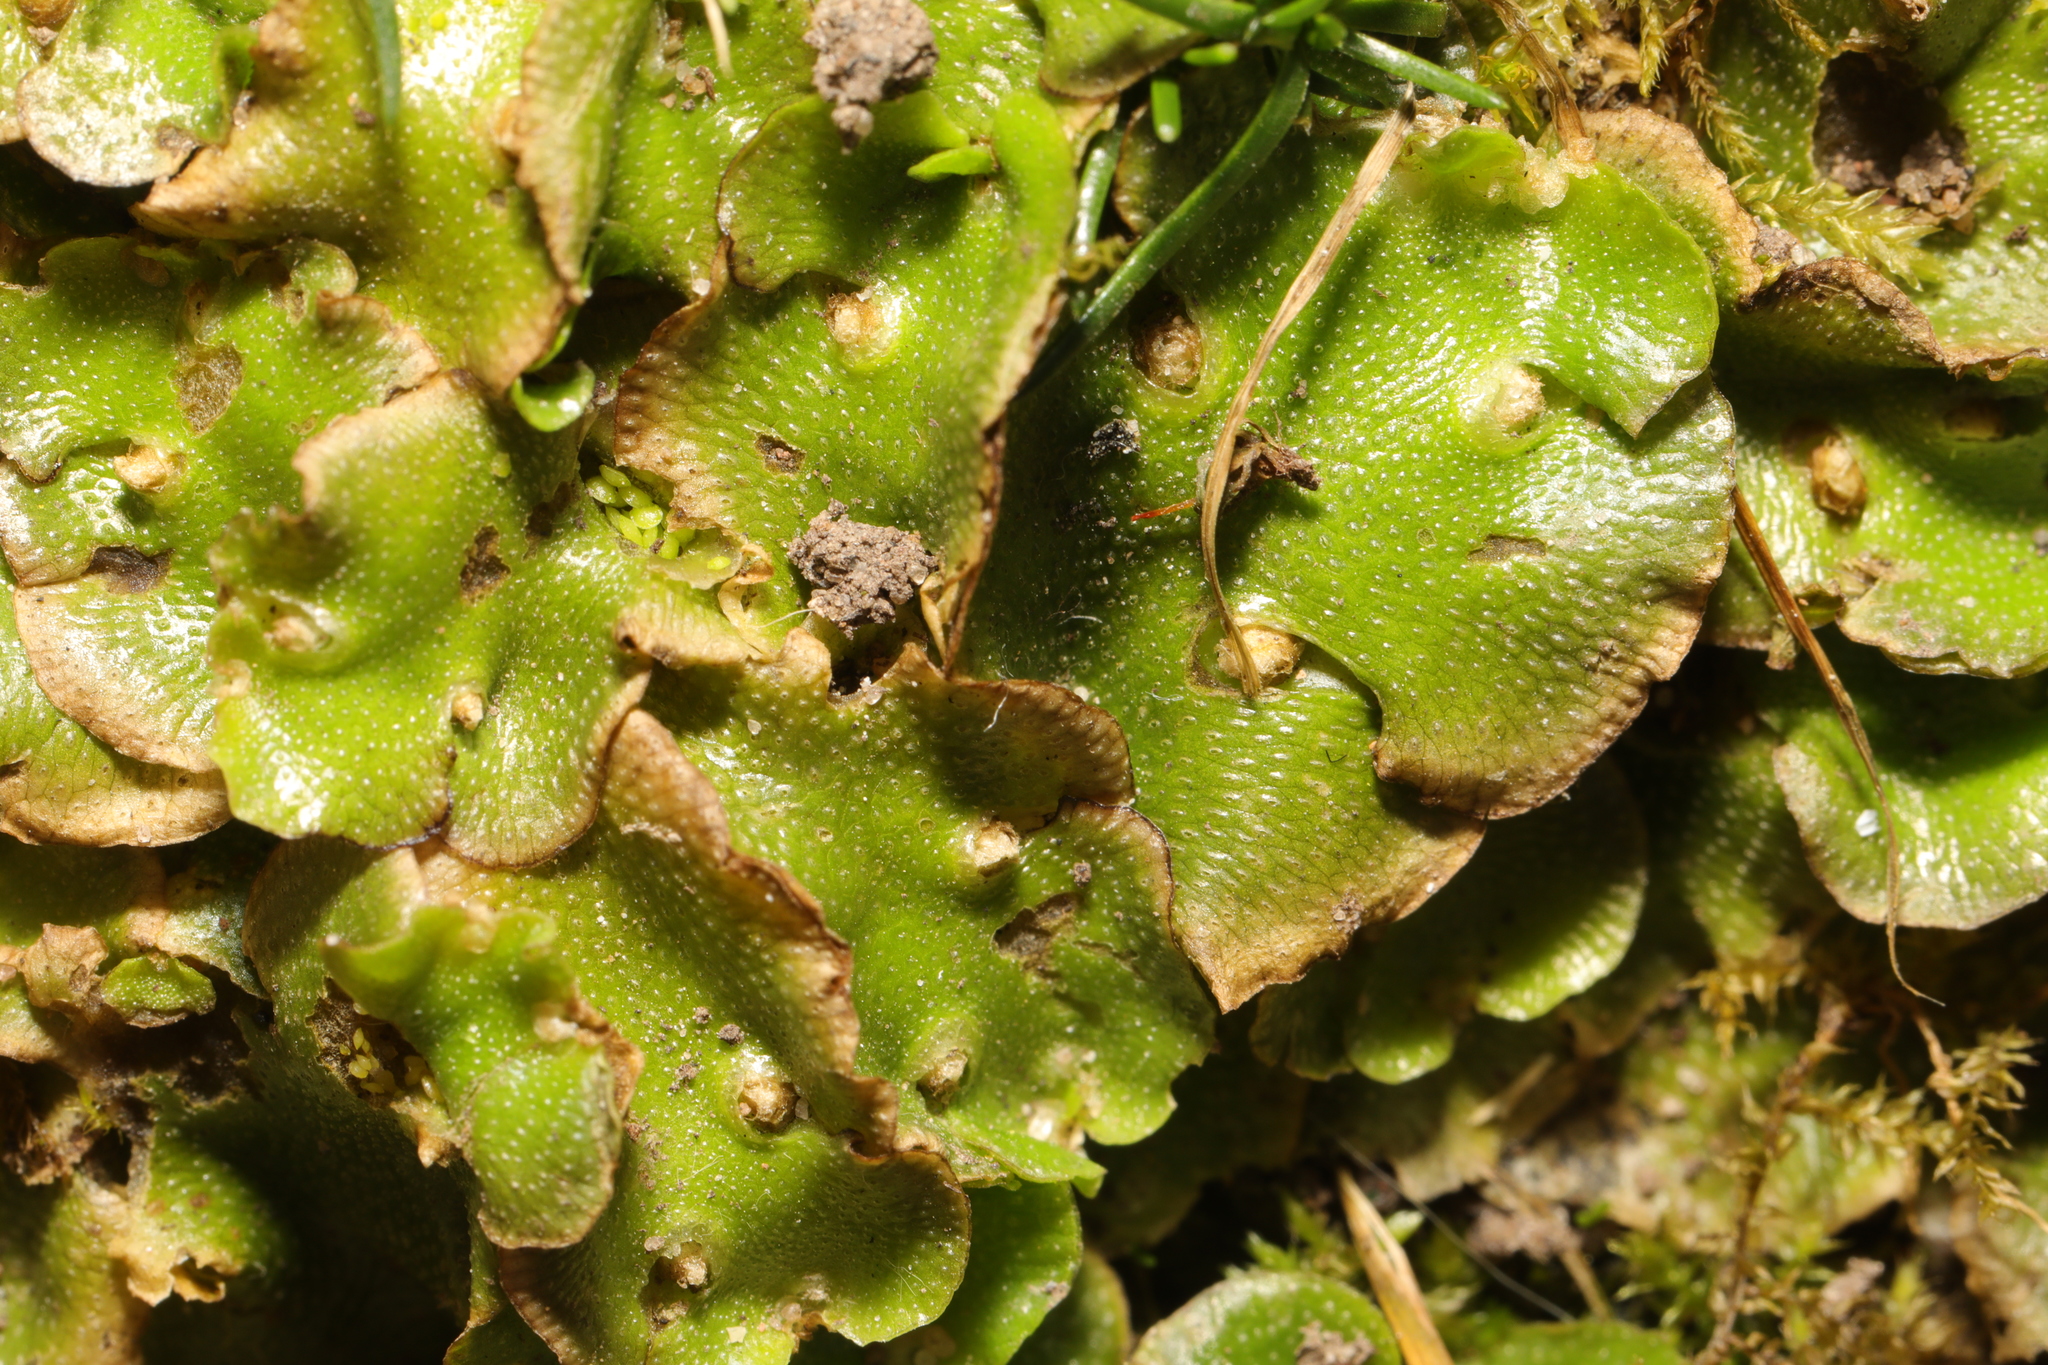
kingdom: Plantae
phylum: Marchantiophyta
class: Marchantiopsida
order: Lunulariales
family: Lunulariaceae
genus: Lunularia
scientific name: Lunularia cruciata
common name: Crescent-cup liverwort
